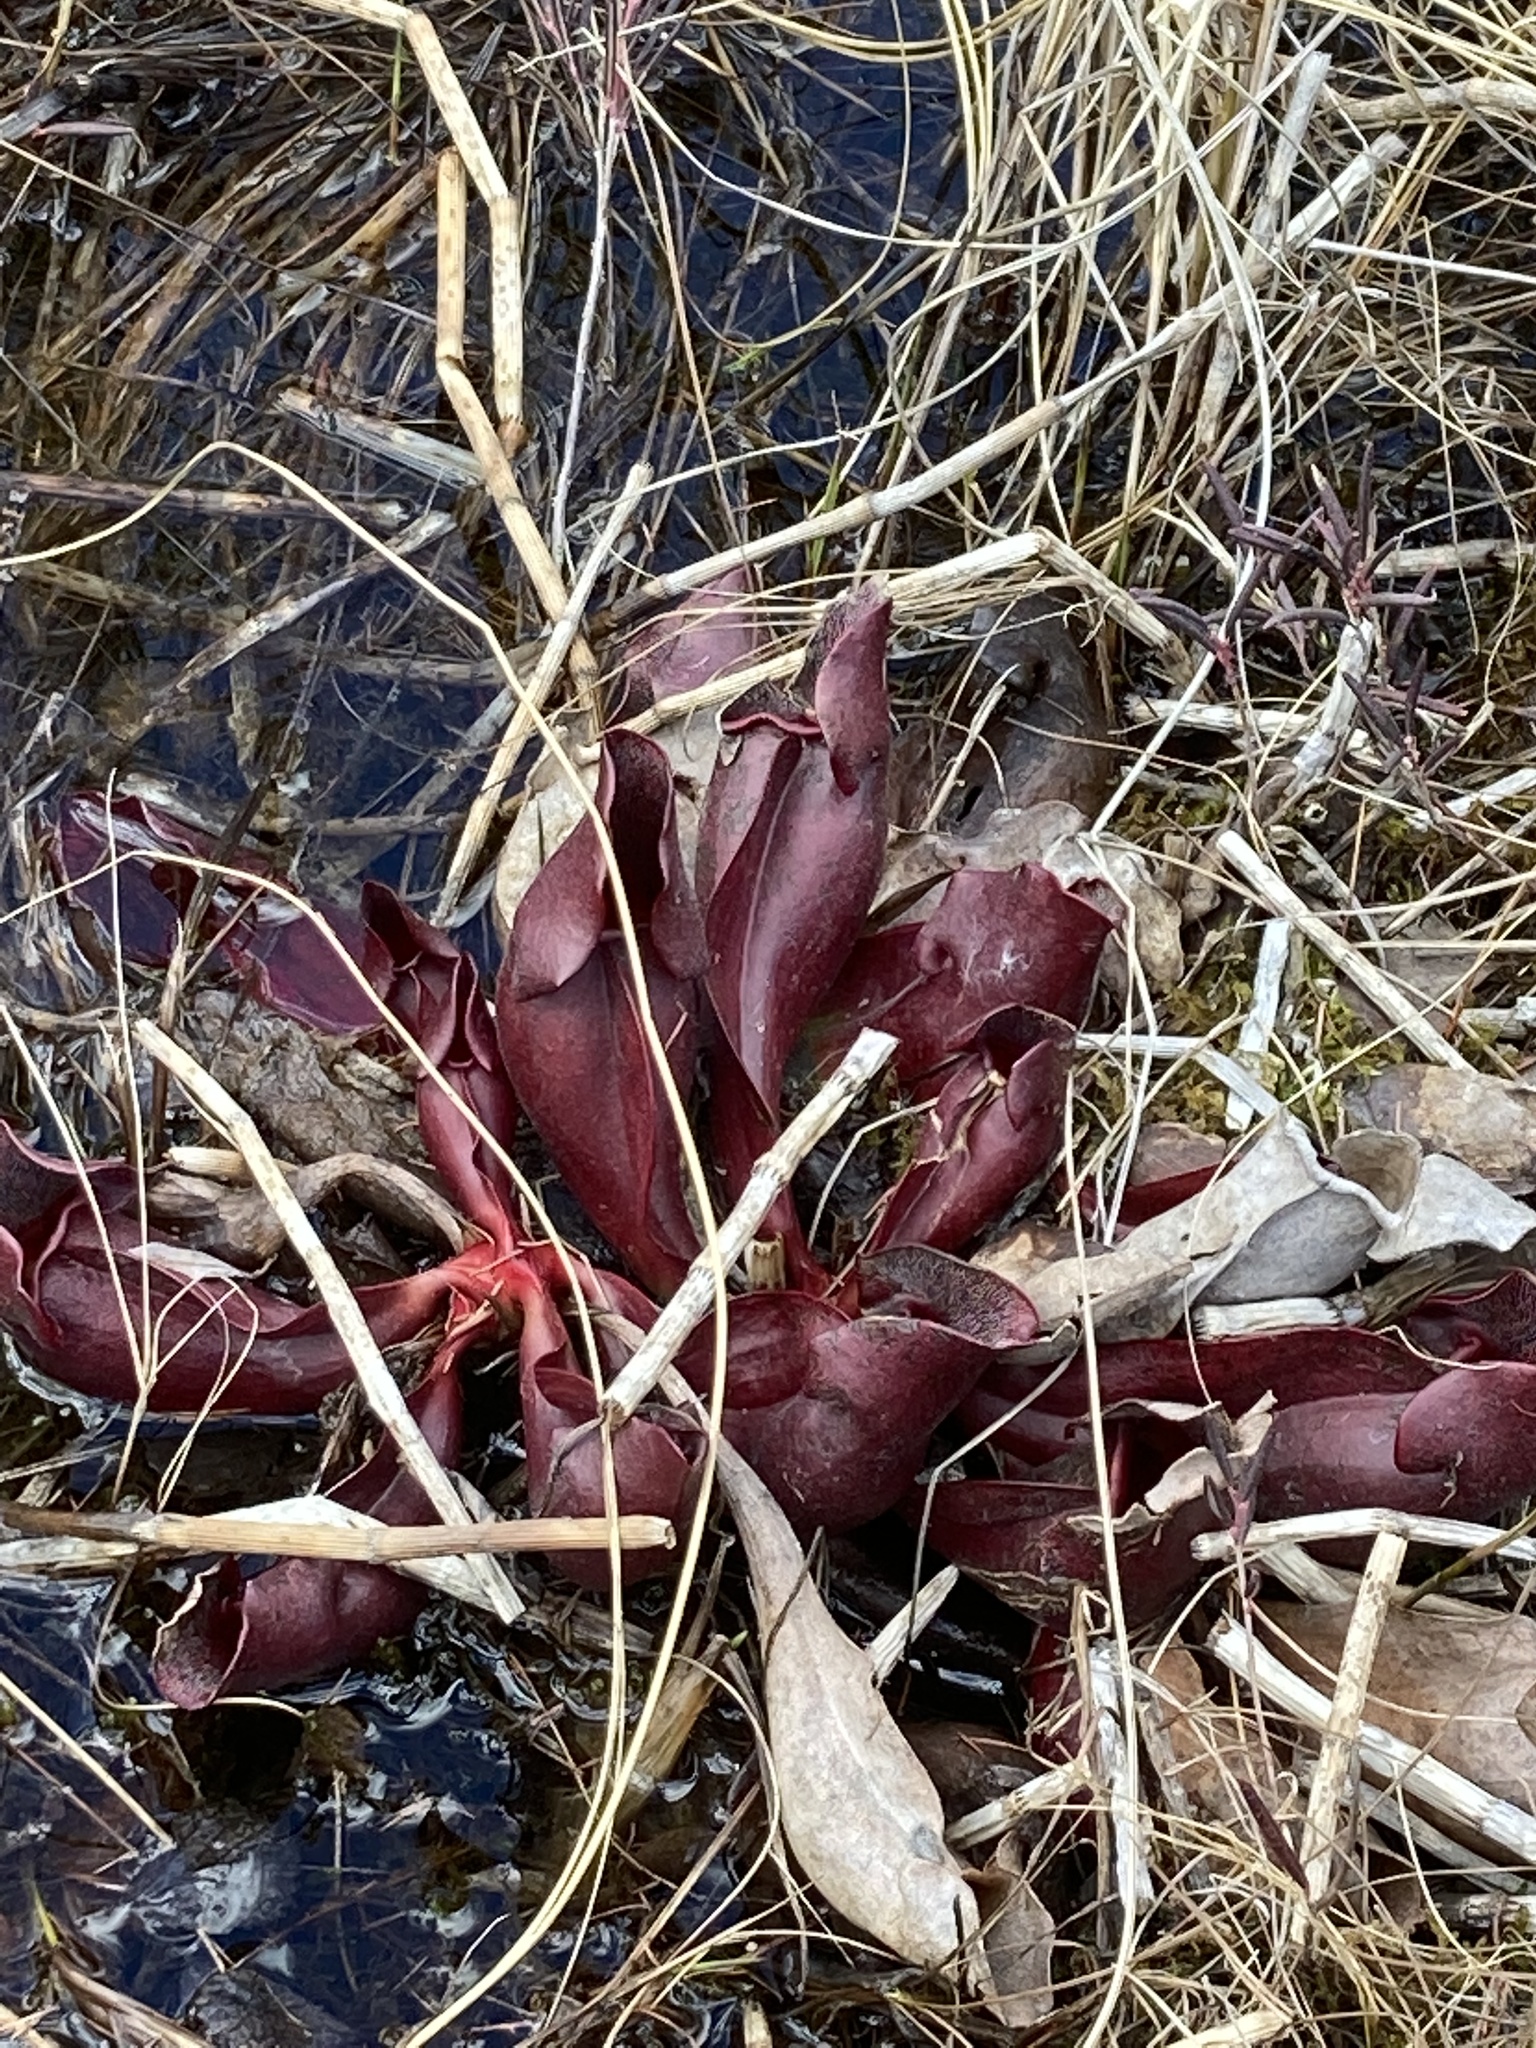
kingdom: Plantae
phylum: Tracheophyta
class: Magnoliopsida
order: Ericales
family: Sarraceniaceae
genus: Sarracenia
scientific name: Sarracenia purpurea
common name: Pitcherplant
